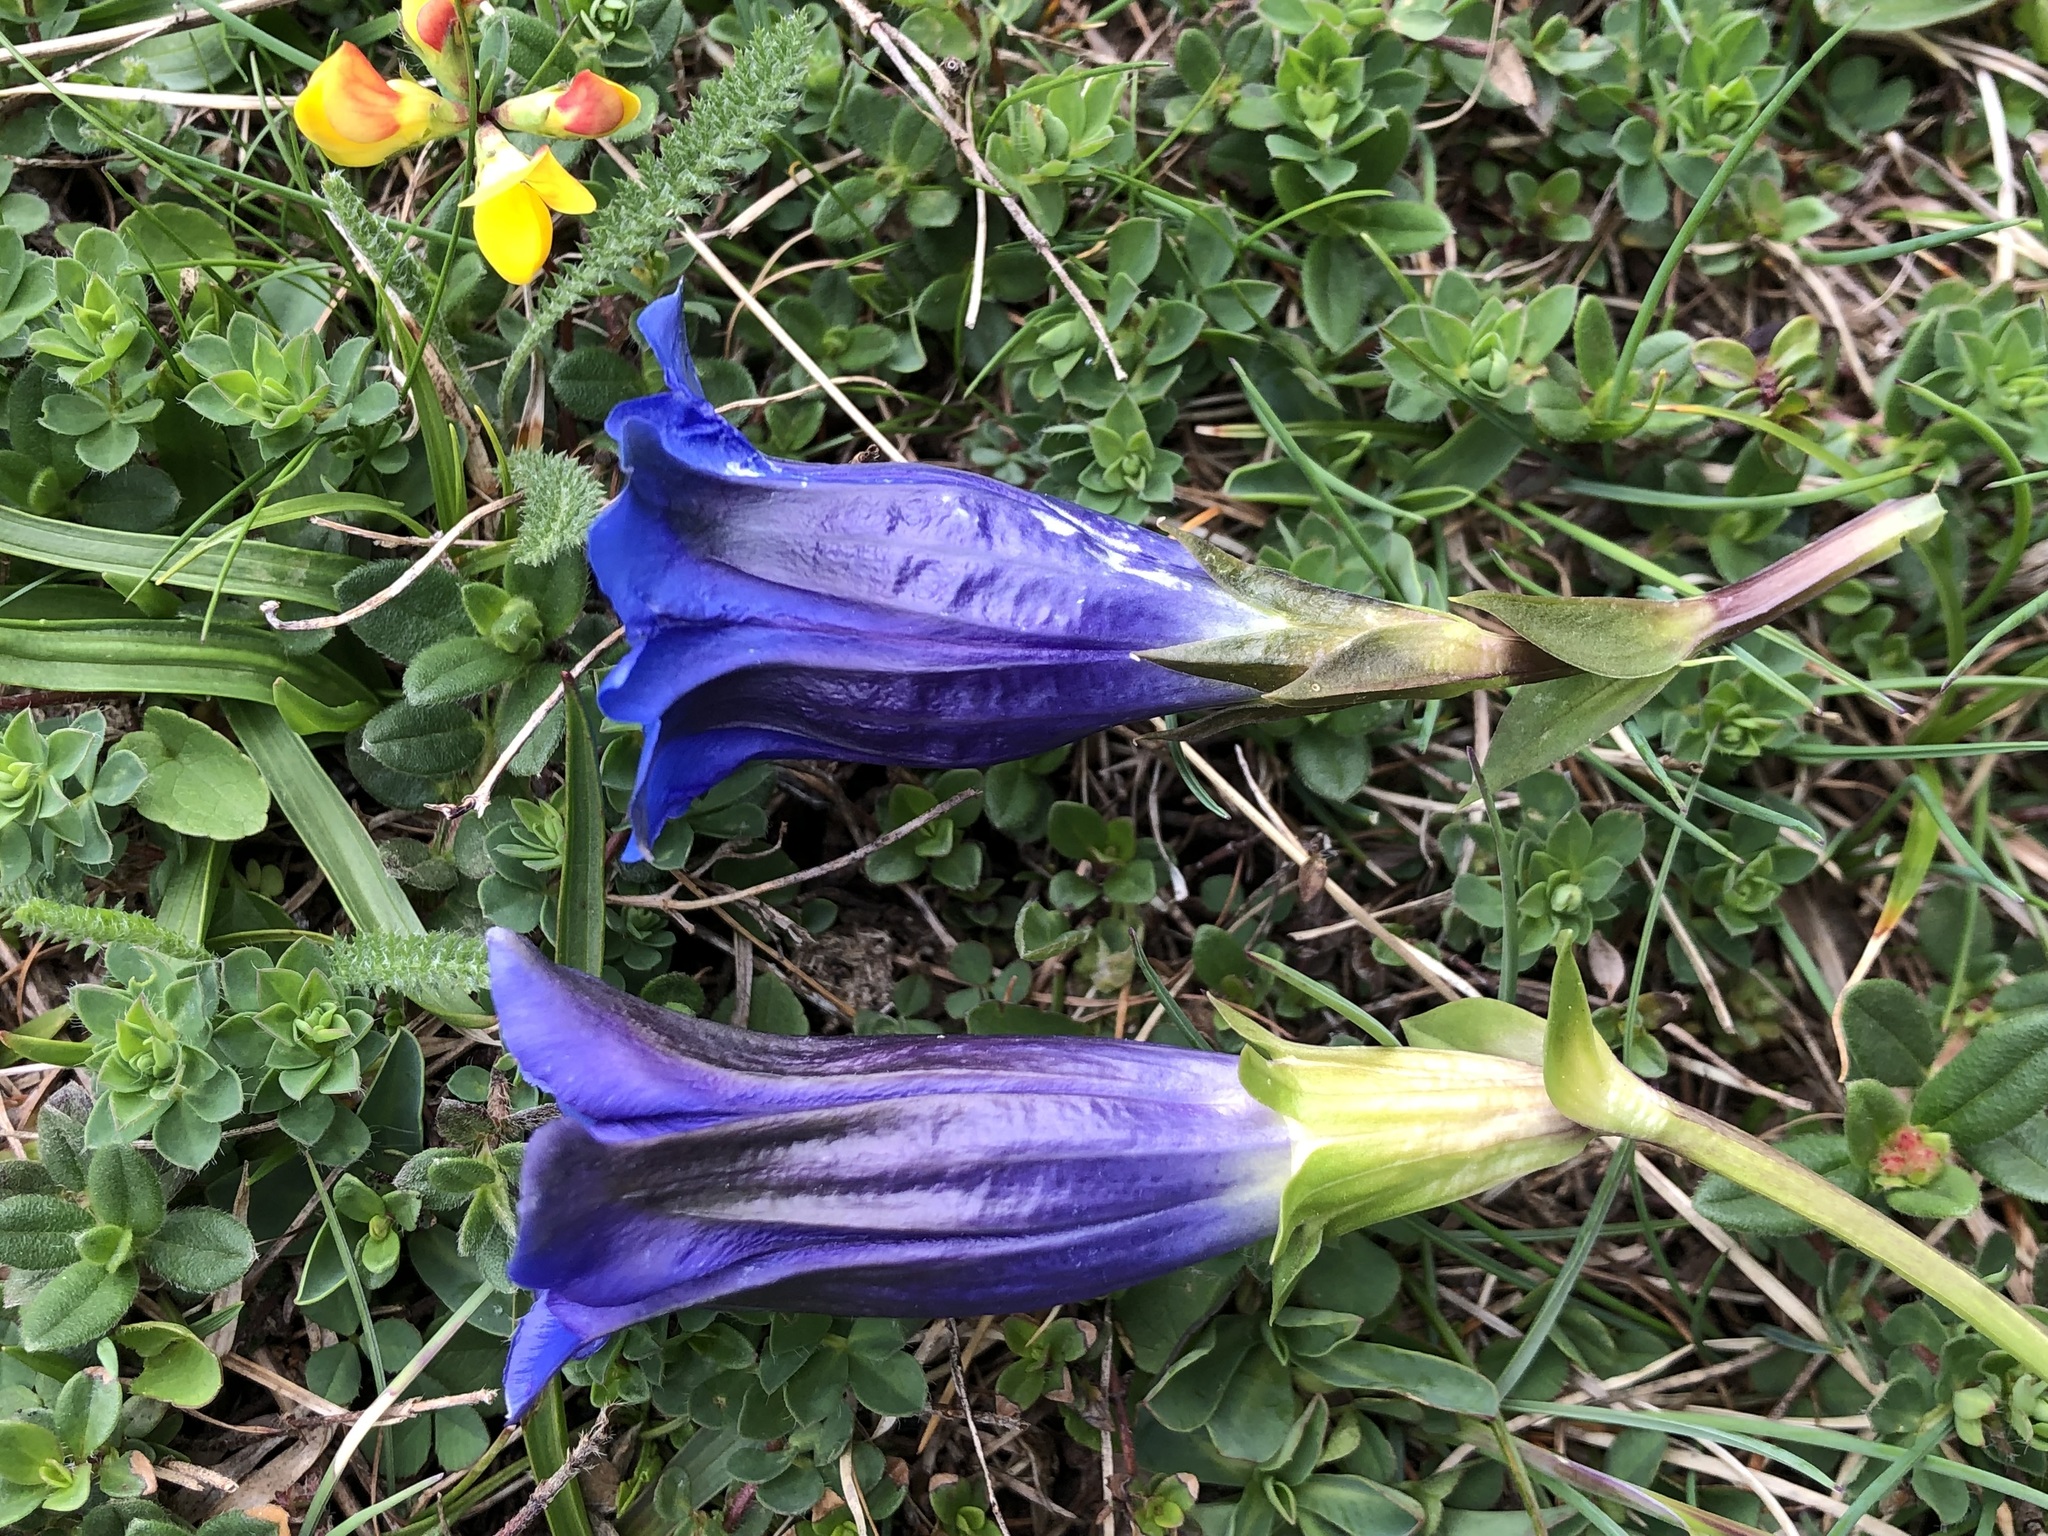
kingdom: Plantae
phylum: Tracheophyta
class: Magnoliopsida
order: Gentianales
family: Gentianaceae
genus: Gentiana
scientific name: Gentiana clusii
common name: Trumpet gentian
